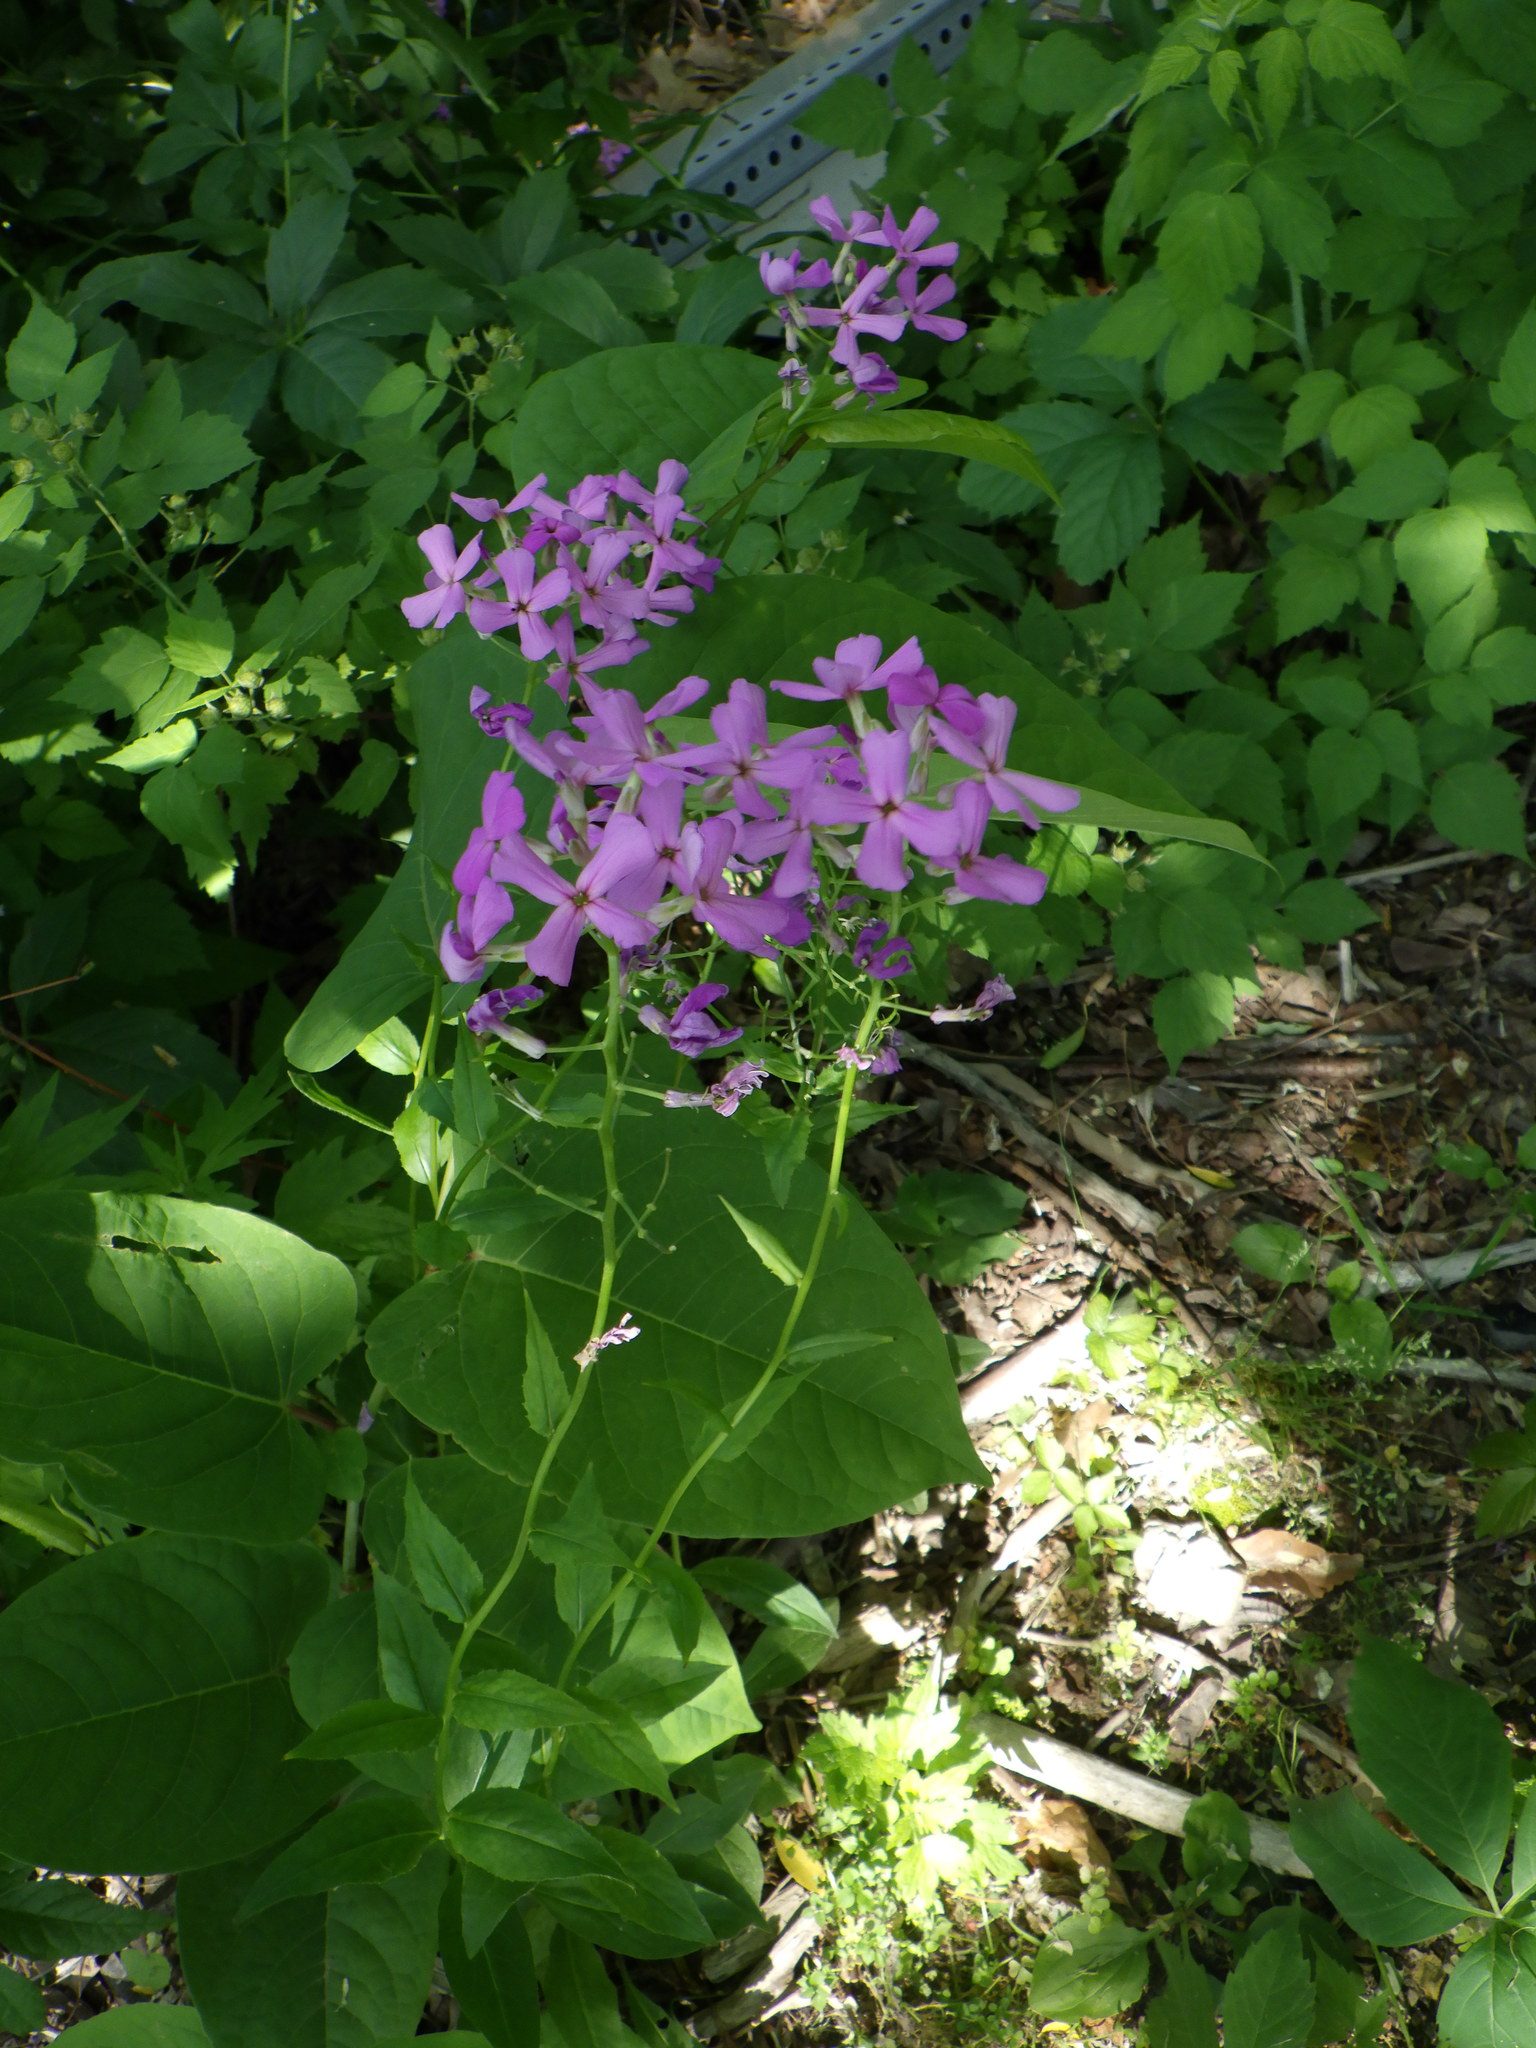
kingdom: Plantae
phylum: Tracheophyta
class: Magnoliopsida
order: Brassicales
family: Brassicaceae
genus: Hesperis
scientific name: Hesperis matronalis
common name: Dame's-violet
